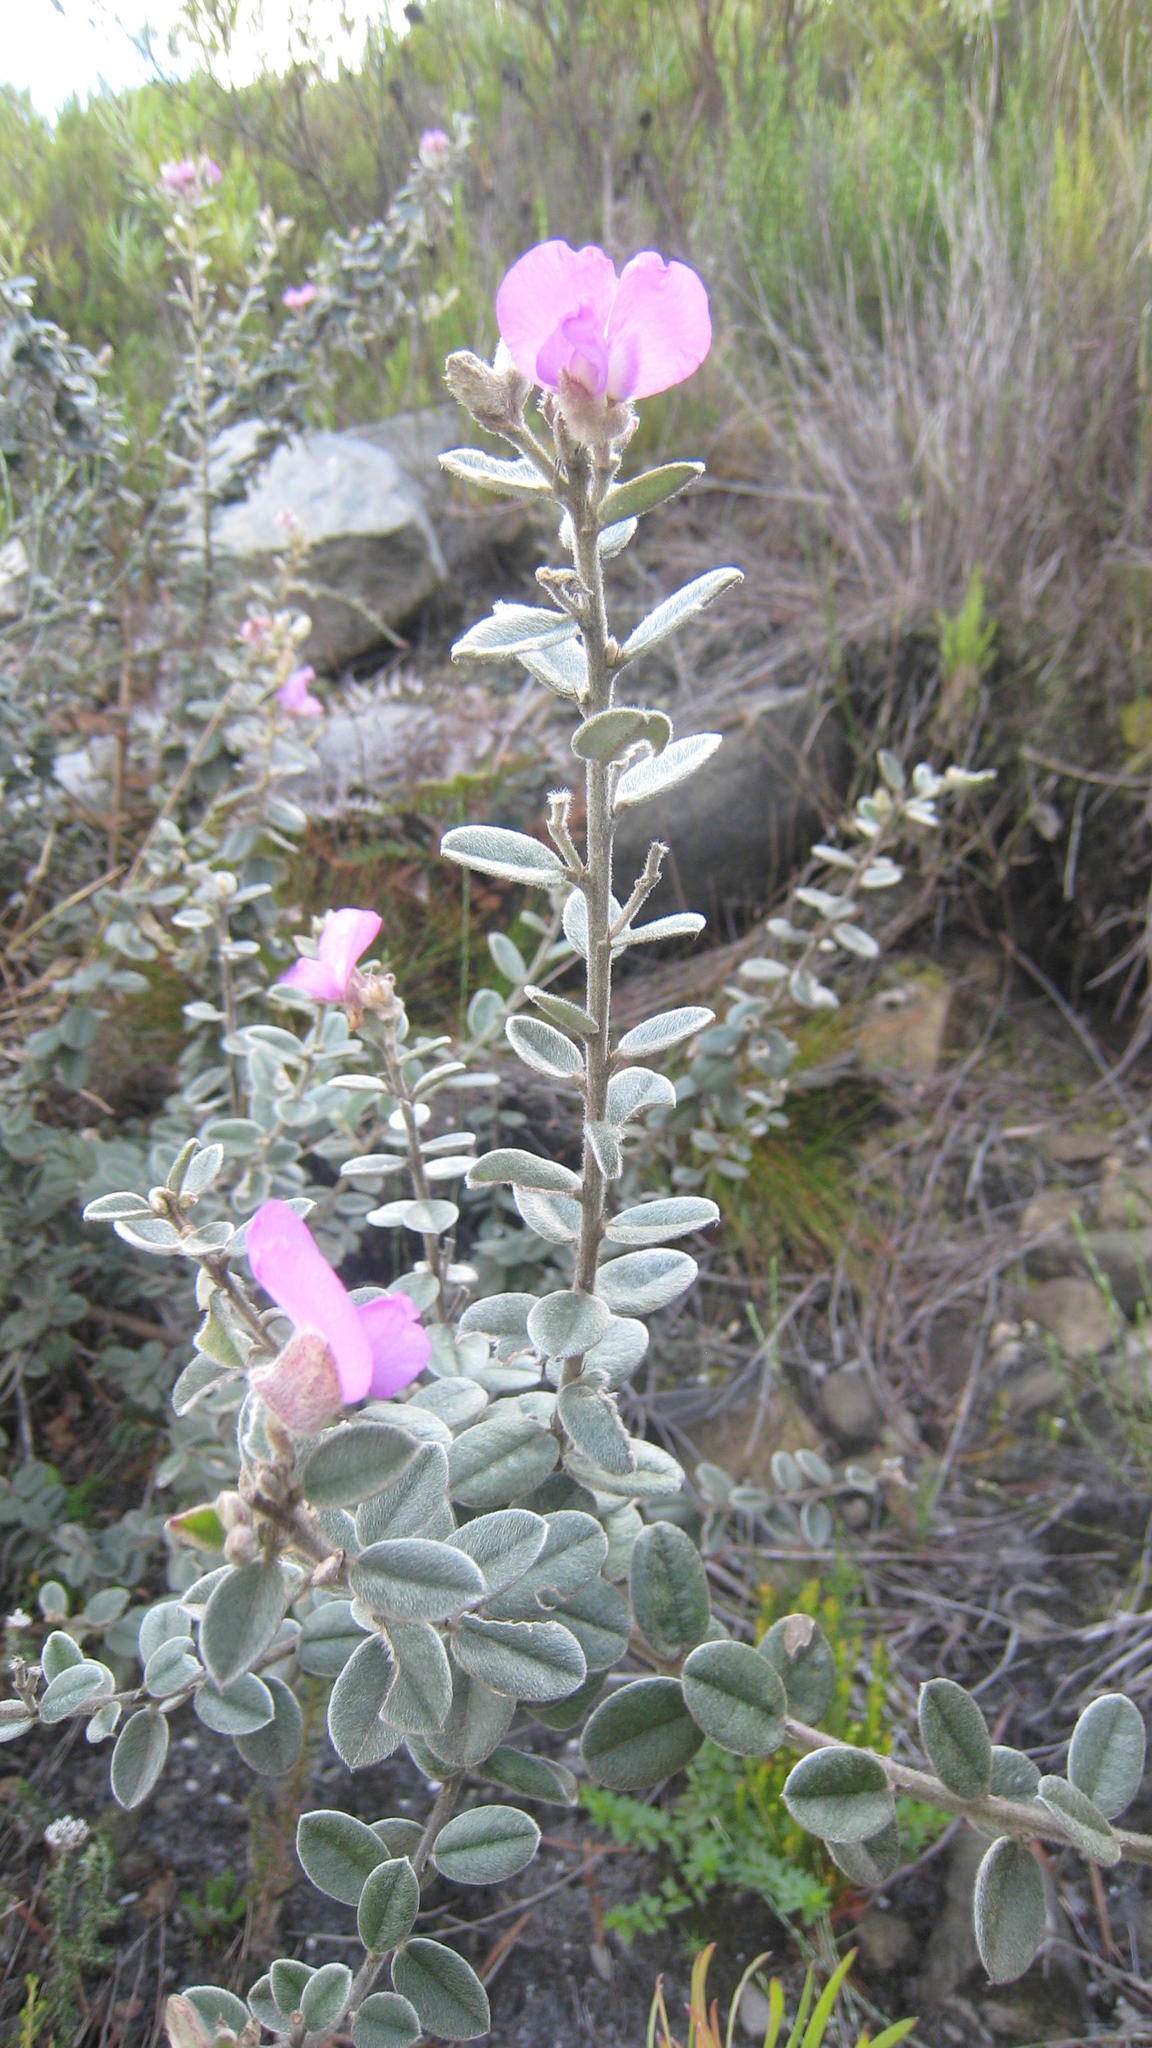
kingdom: Plantae
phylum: Tracheophyta
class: Magnoliopsida
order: Fabales
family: Fabaceae
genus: Podalyria
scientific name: Podalyria hirsuta
